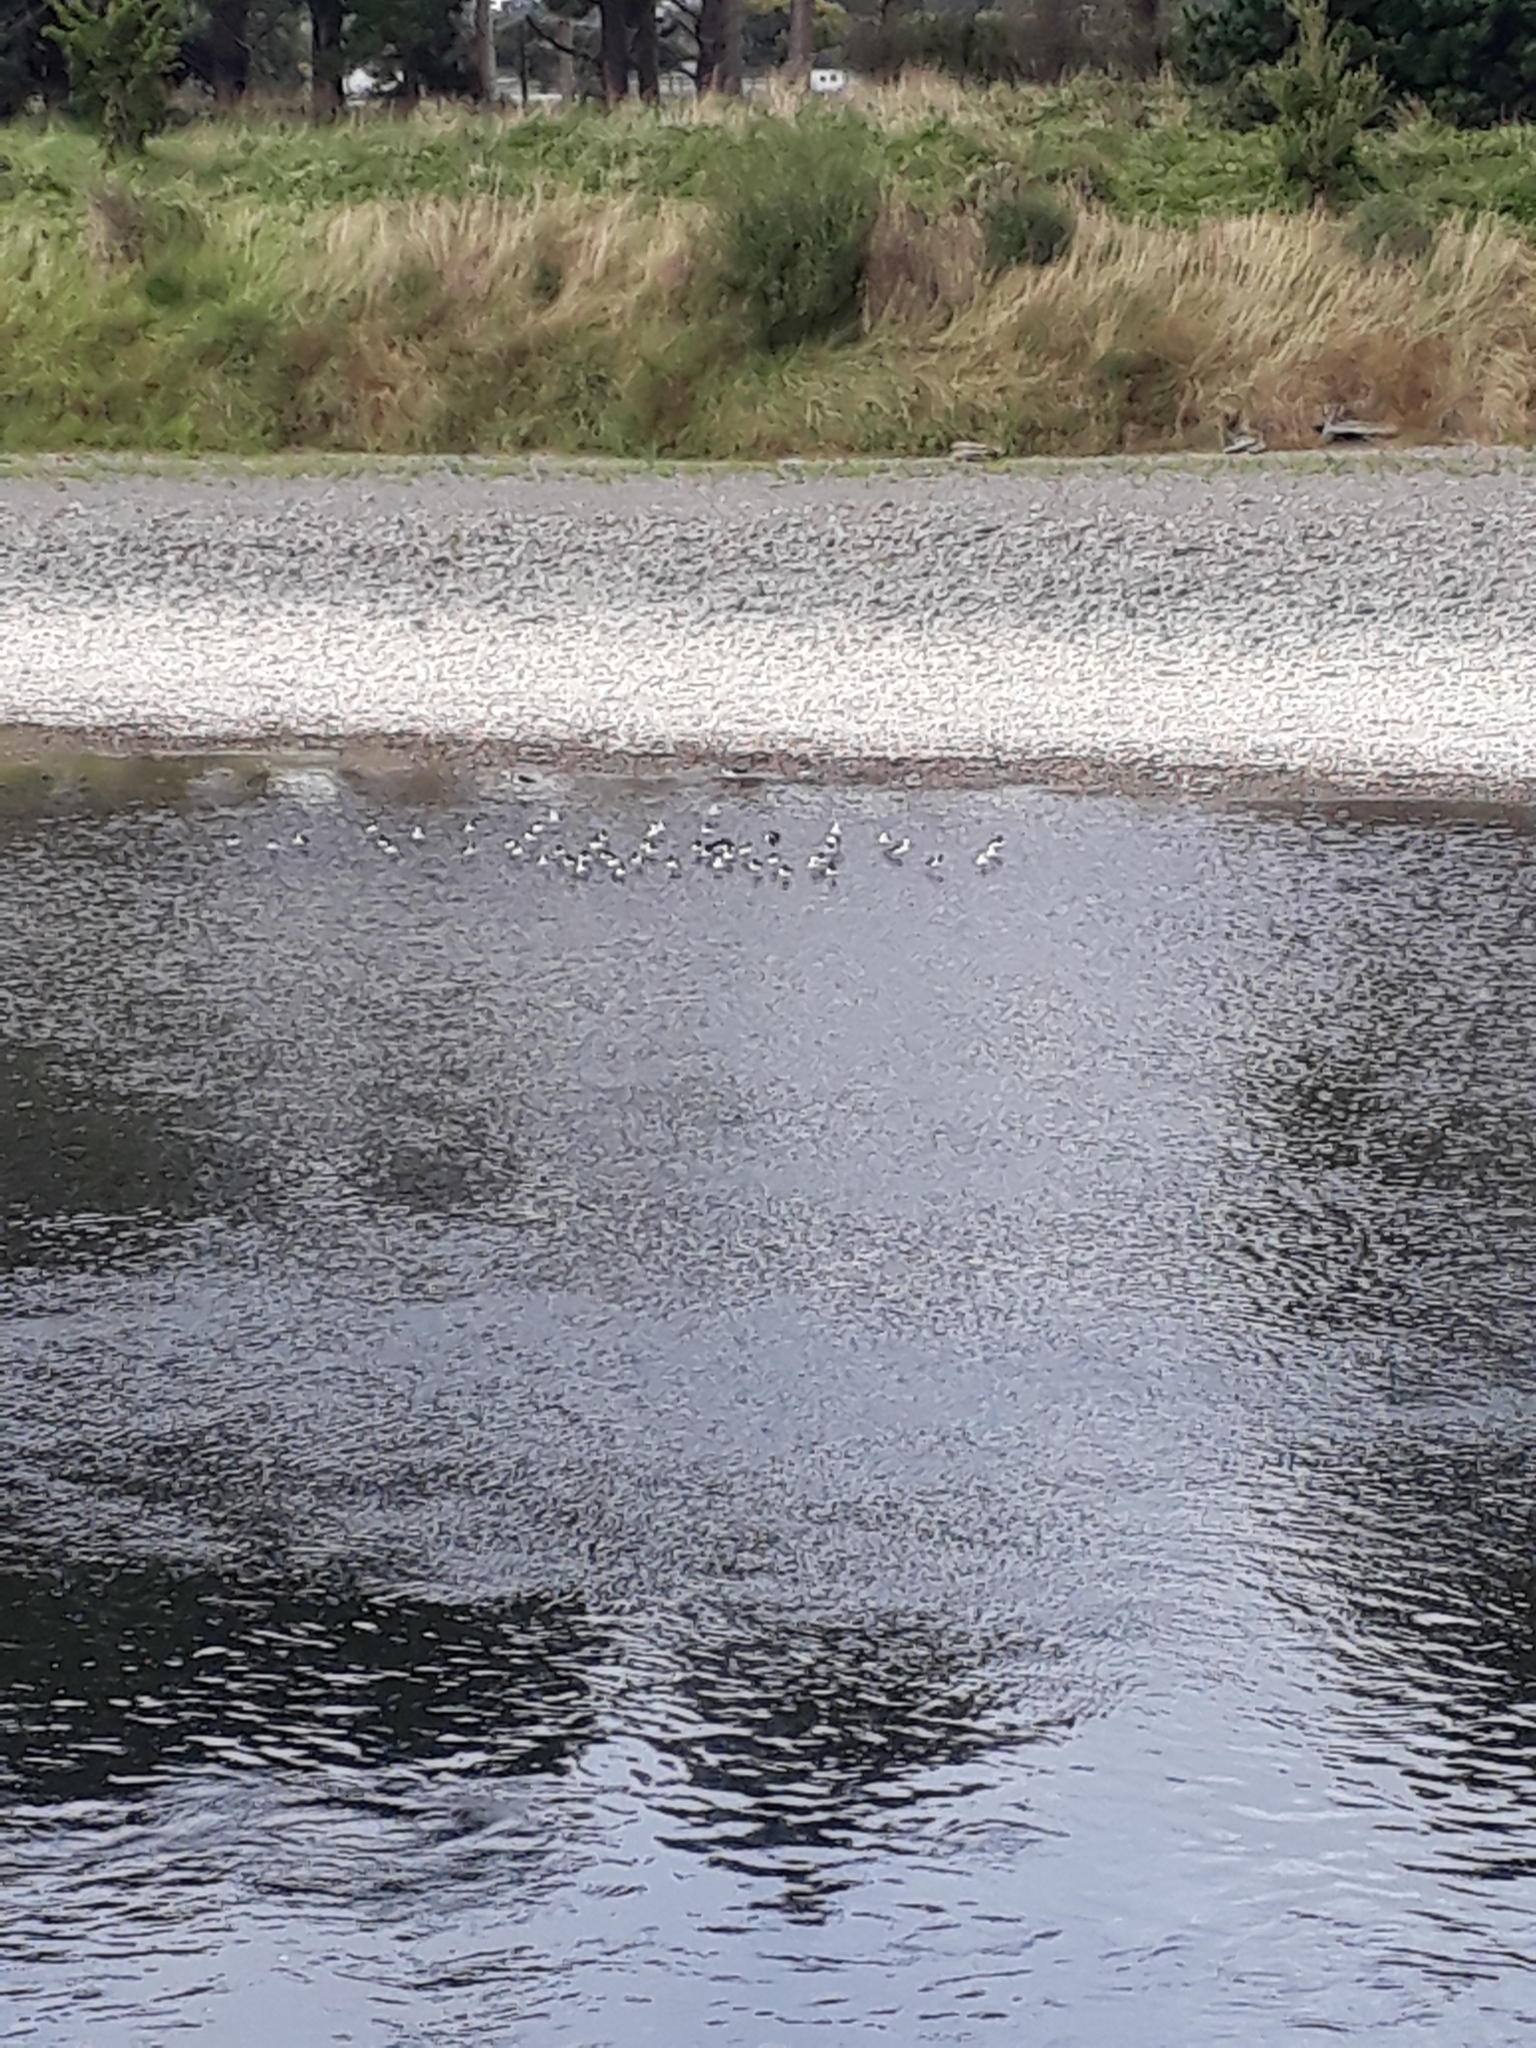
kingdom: Animalia
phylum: Chordata
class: Aves
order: Charadriiformes
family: Recurvirostridae
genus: Himantopus
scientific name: Himantopus leucocephalus
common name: White-headed stilt
